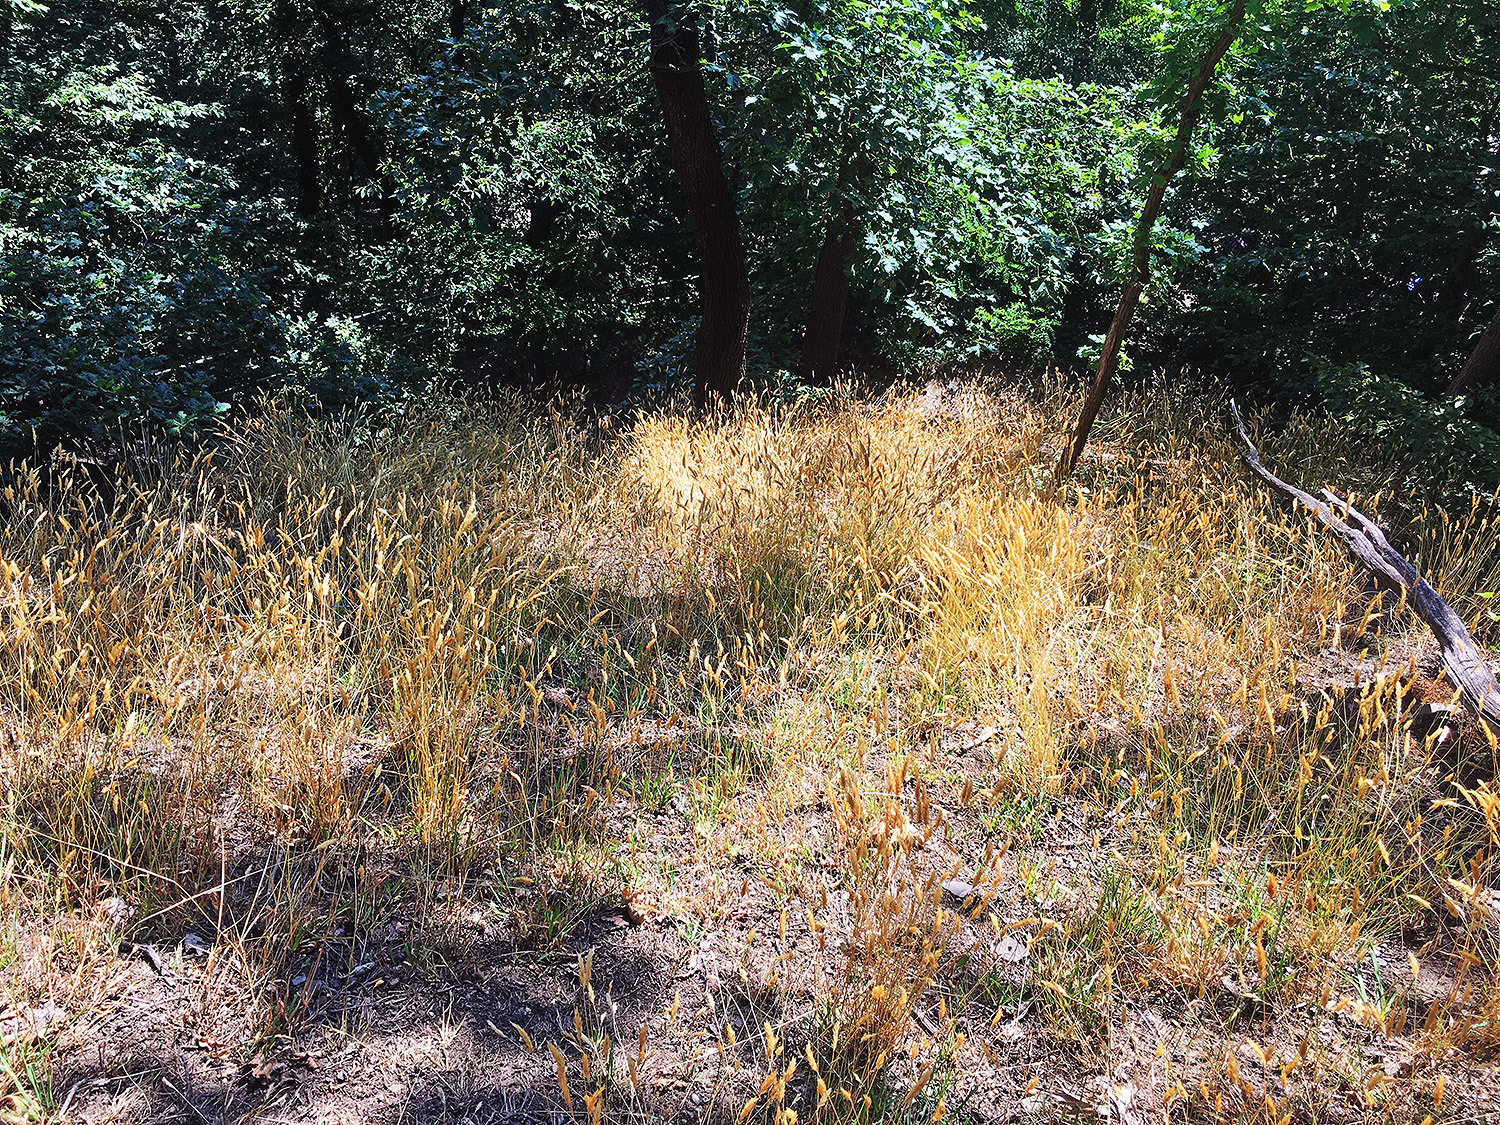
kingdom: Plantae
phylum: Tracheophyta
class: Liliopsida
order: Poales
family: Poaceae
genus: Anthoxanthum
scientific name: Anthoxanthum odoratum
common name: Sweet vernalgrass
